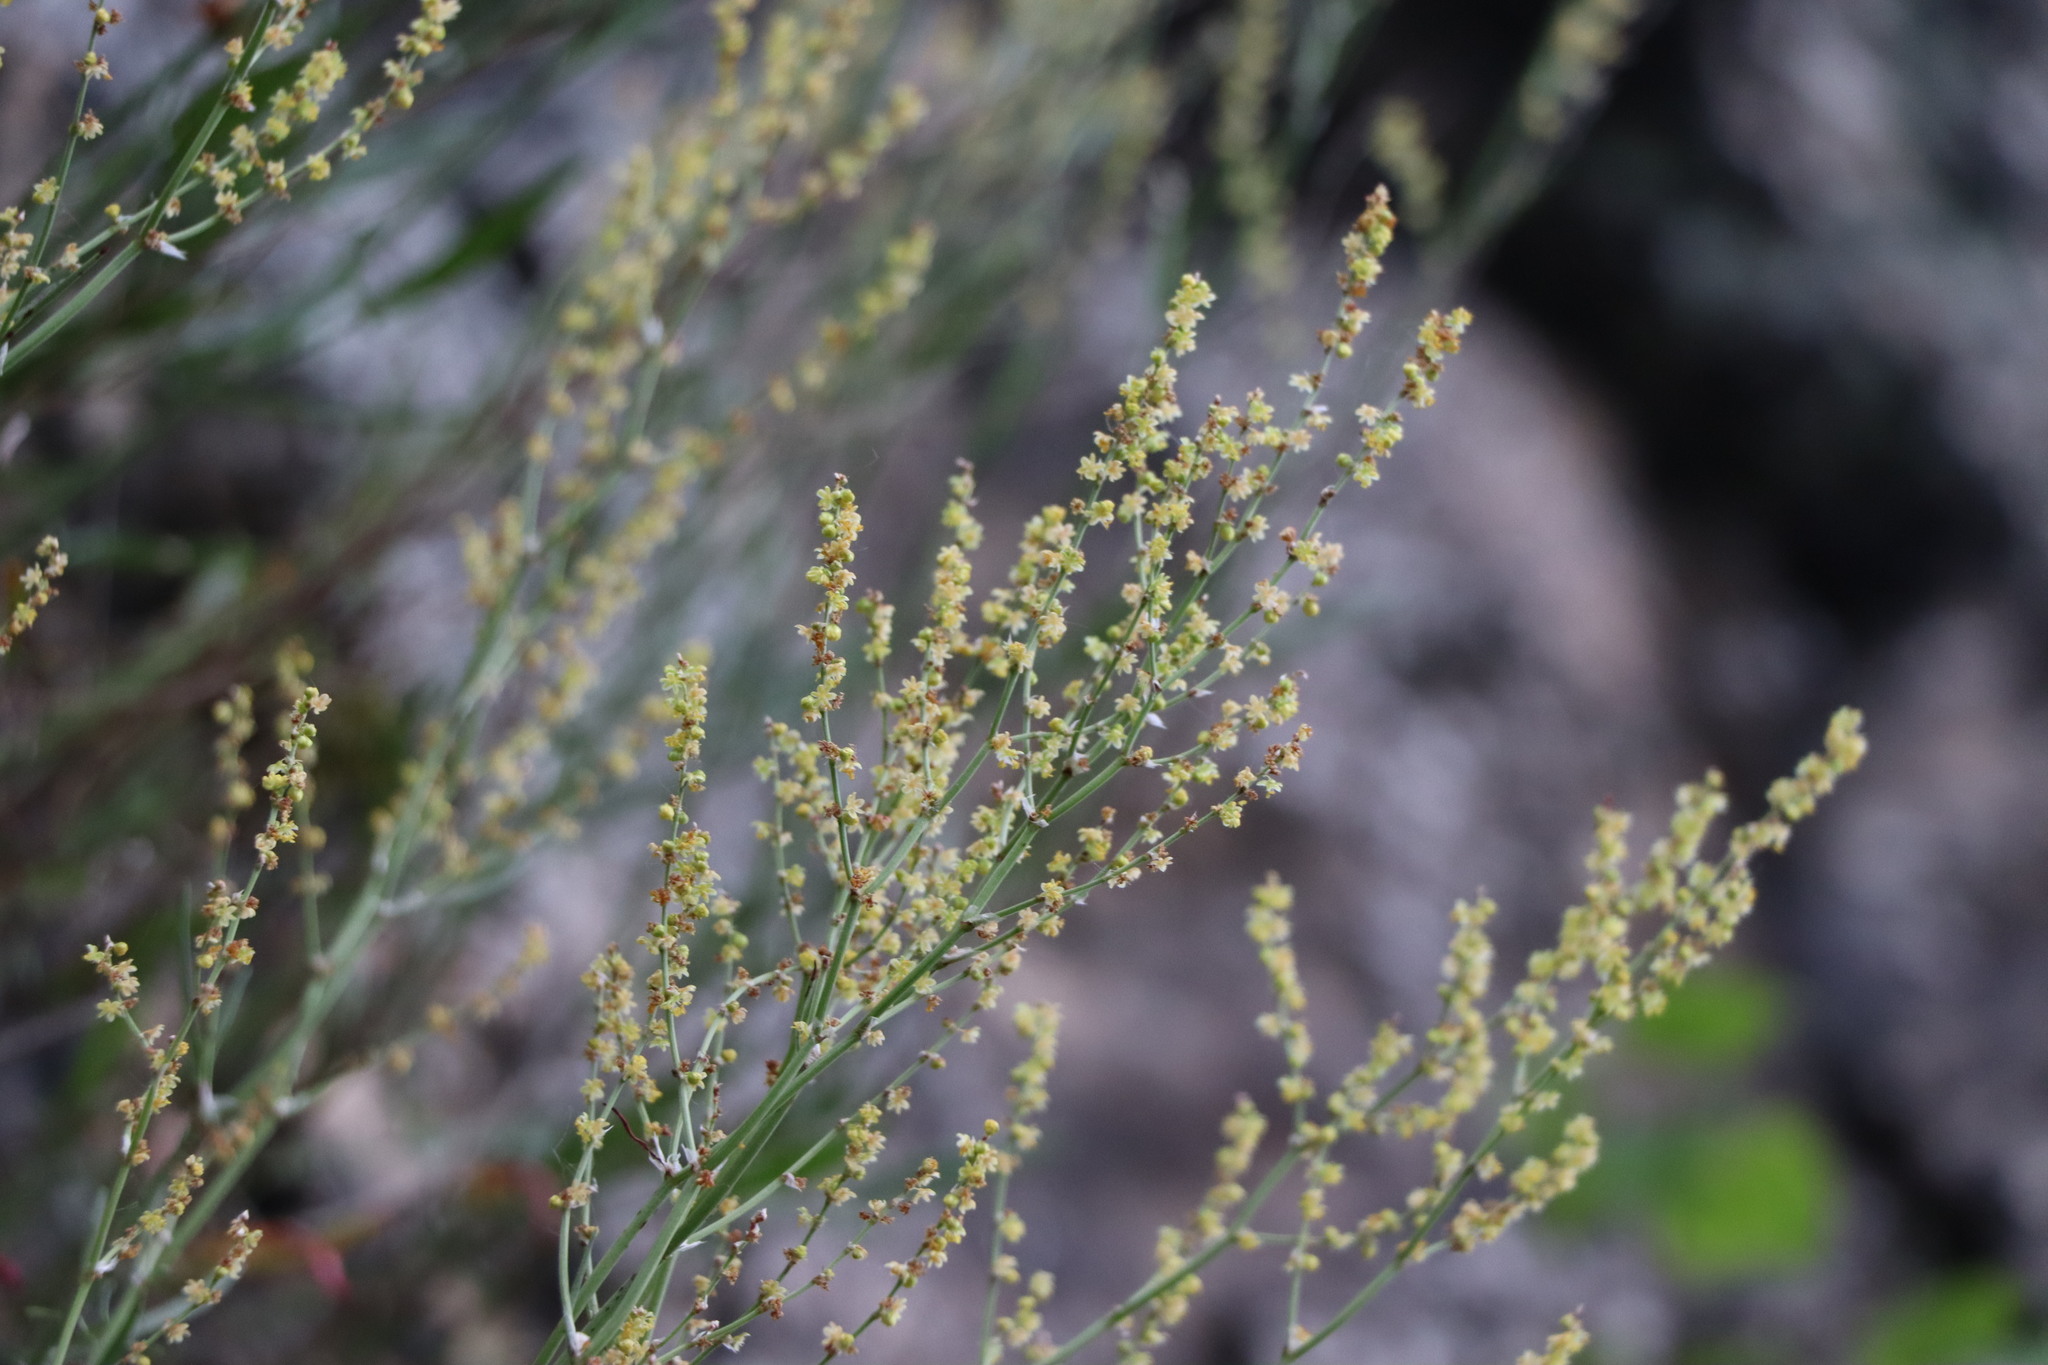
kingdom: Plantae
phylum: Tracheophyta
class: Magnoliopsida
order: Caryophyllales
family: Polygonaceae
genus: Rumex
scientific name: Rumex acetosella
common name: Common sheep sorrel
